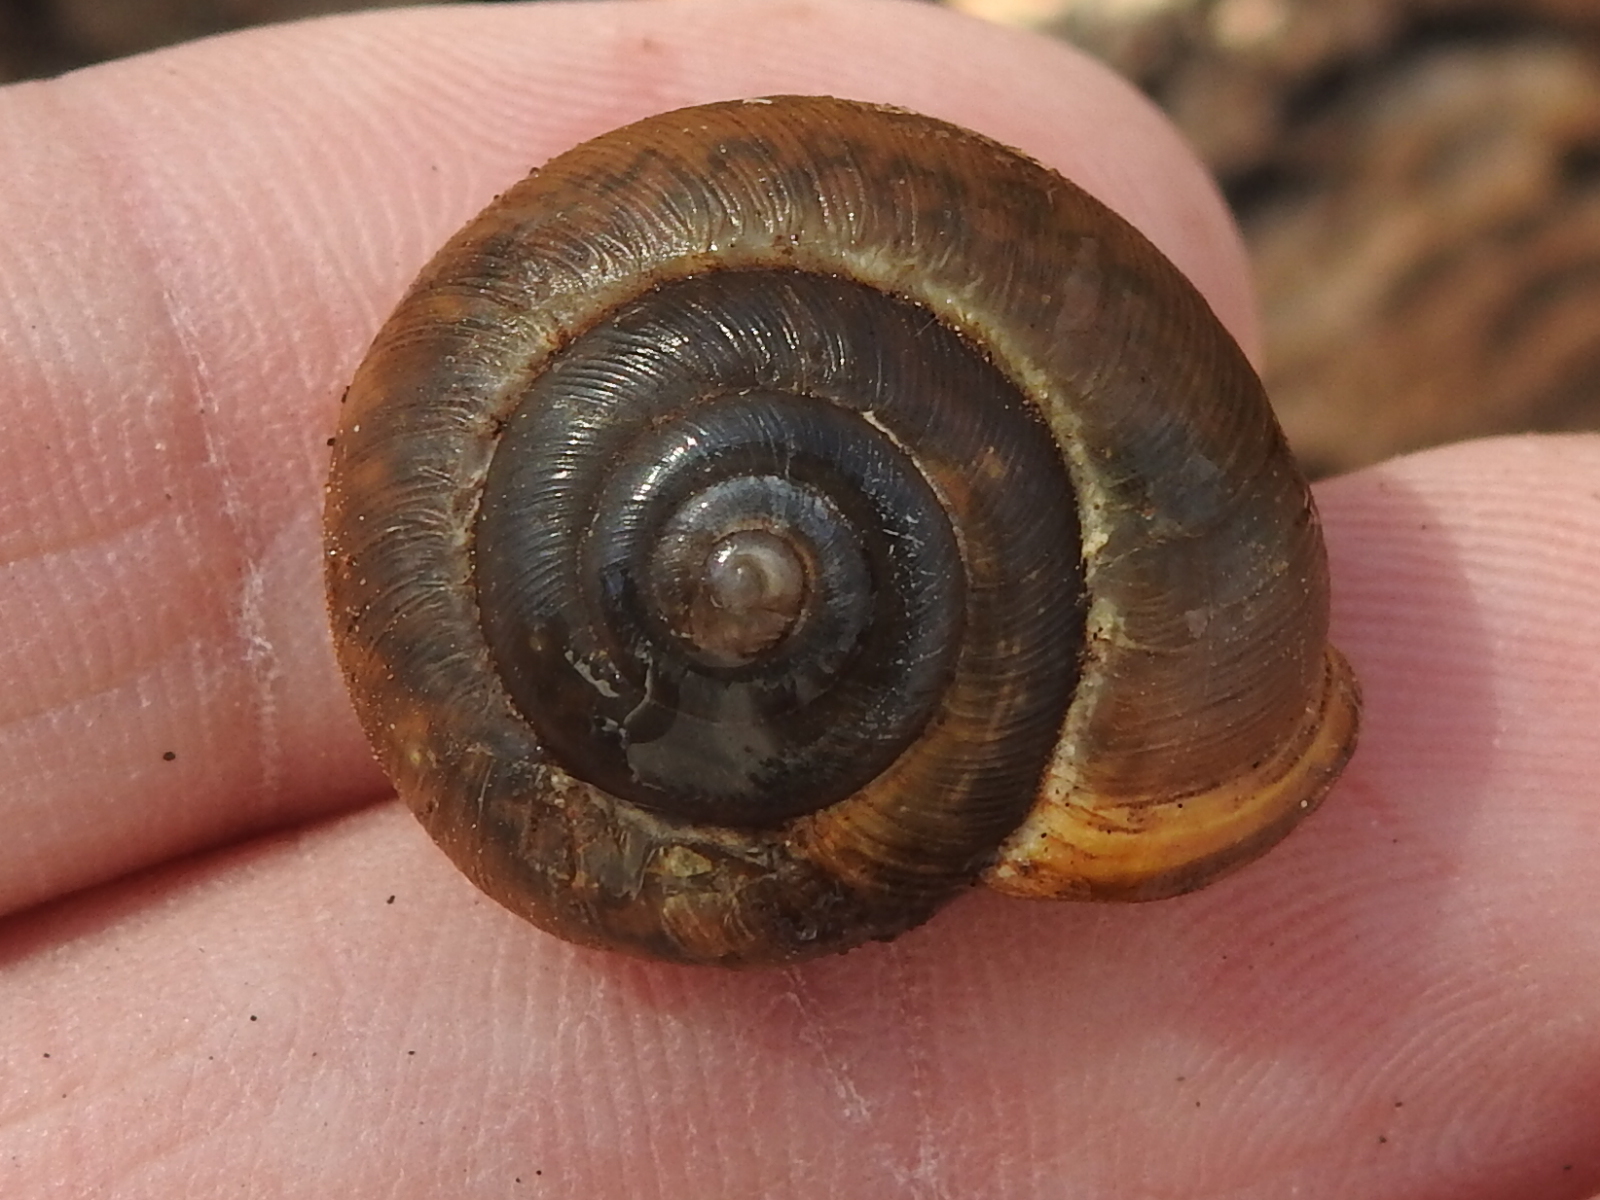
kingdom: Animalia
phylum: Mollusca
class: Gastropoda
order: Stylommatophora
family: Polygyridae
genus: Mesodon
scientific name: Mesodon thyroidus
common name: White-lip globe
